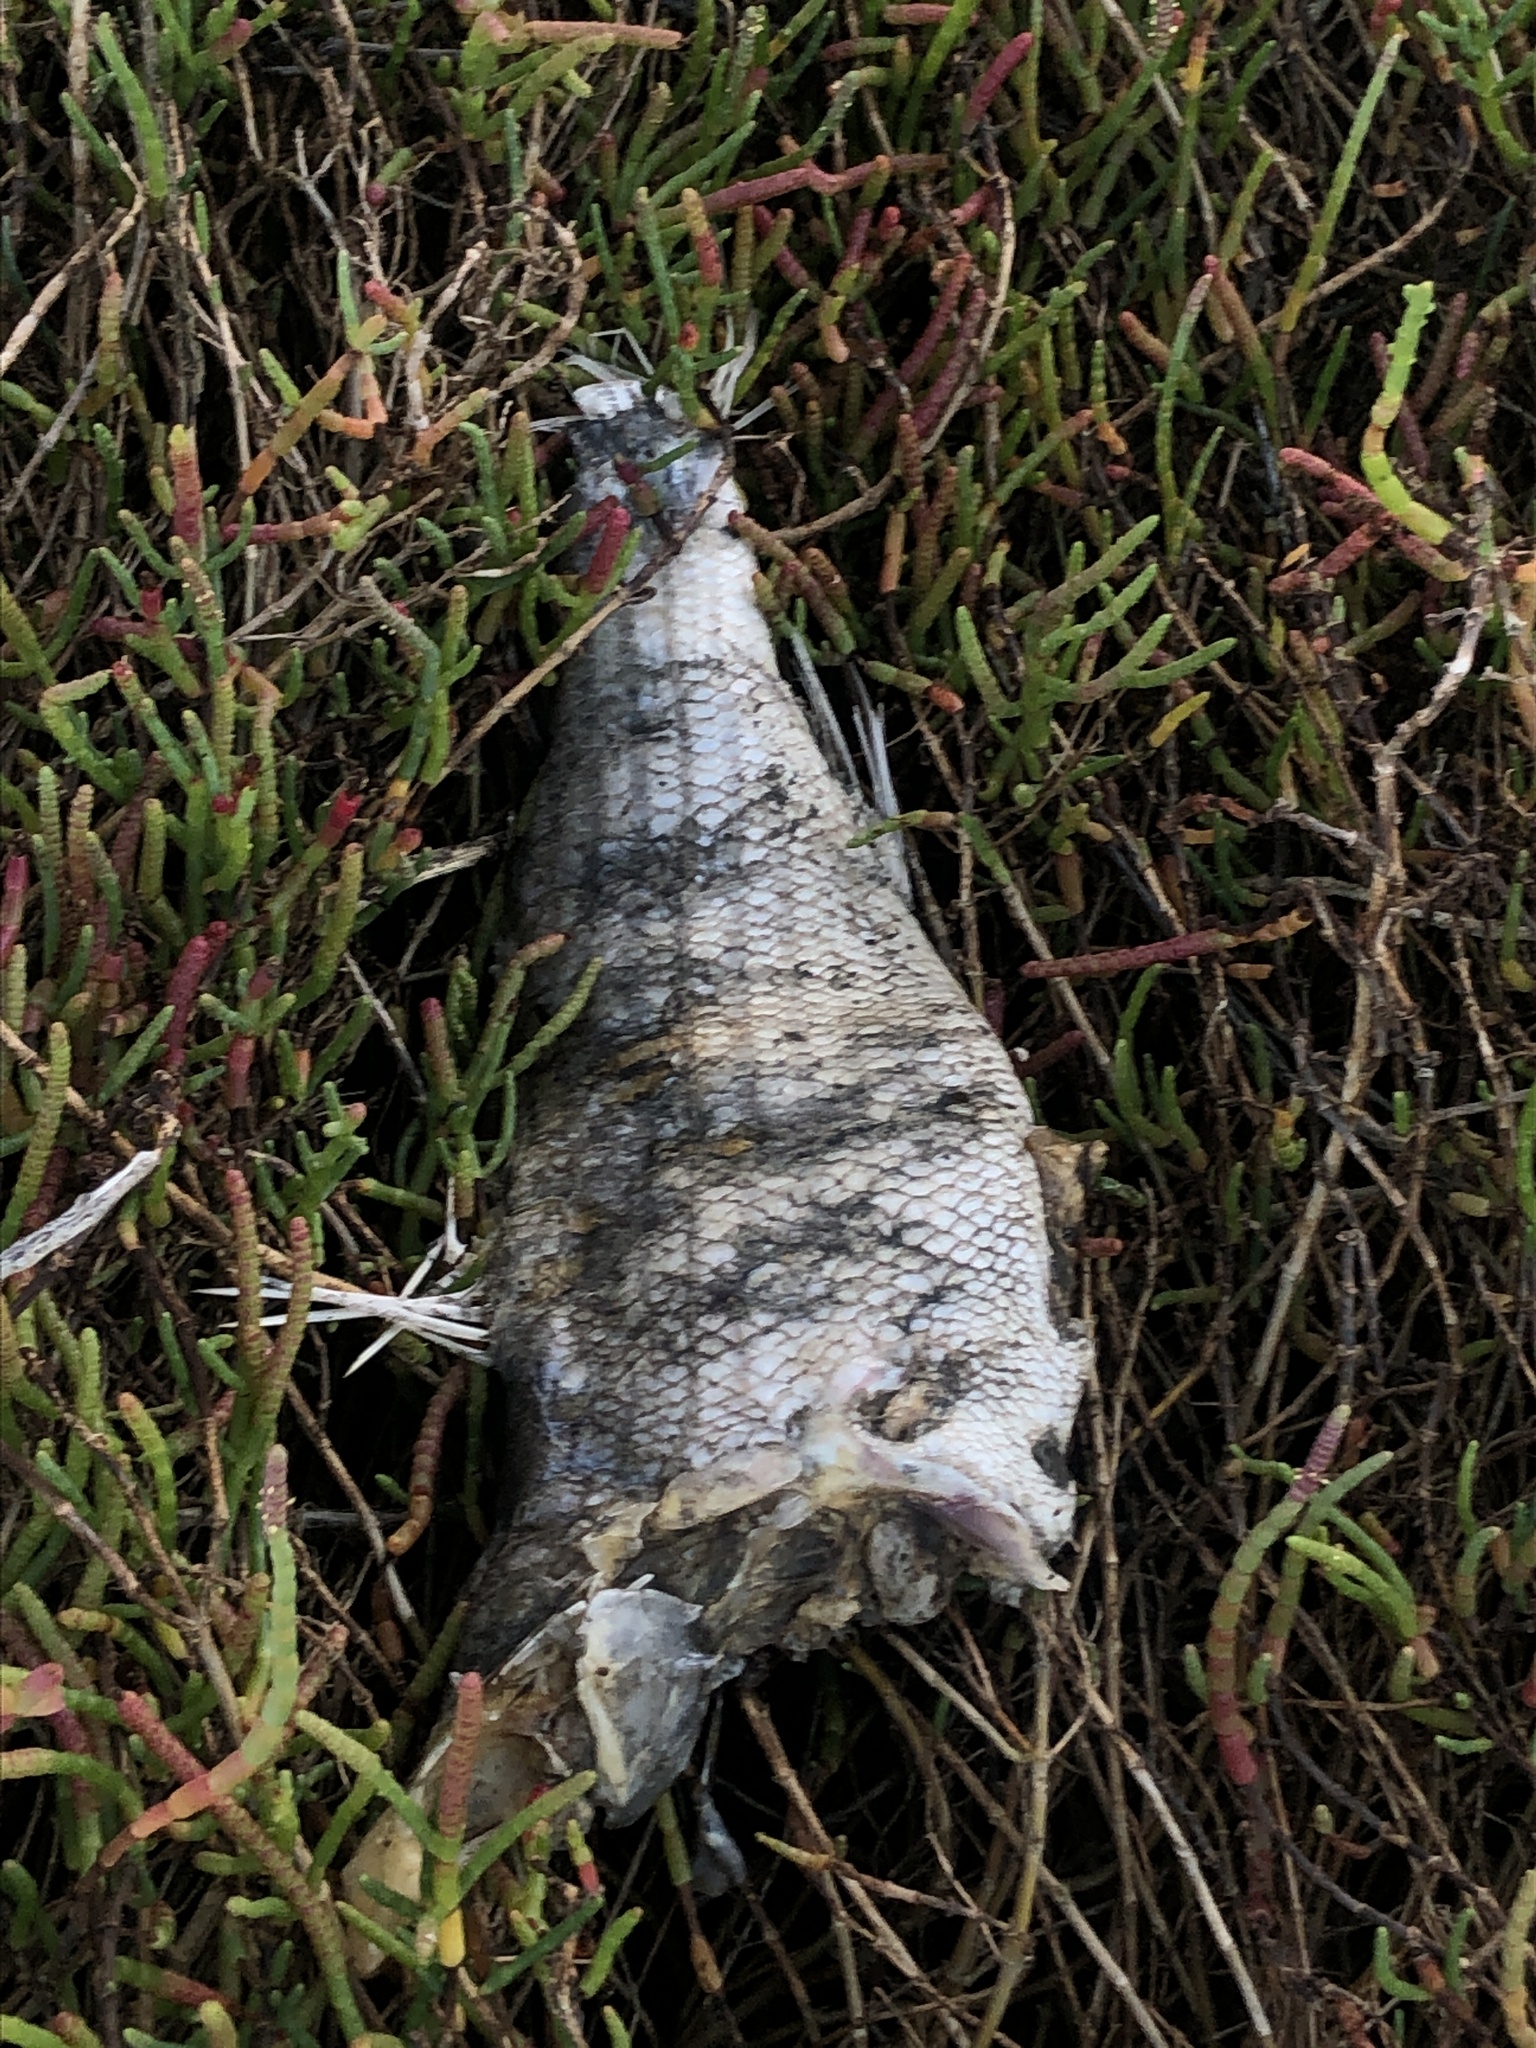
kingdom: Animalia
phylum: Chordata
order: Perciformes
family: Moronidae
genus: Morone
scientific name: Morone saxatilis
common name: Striped bass
